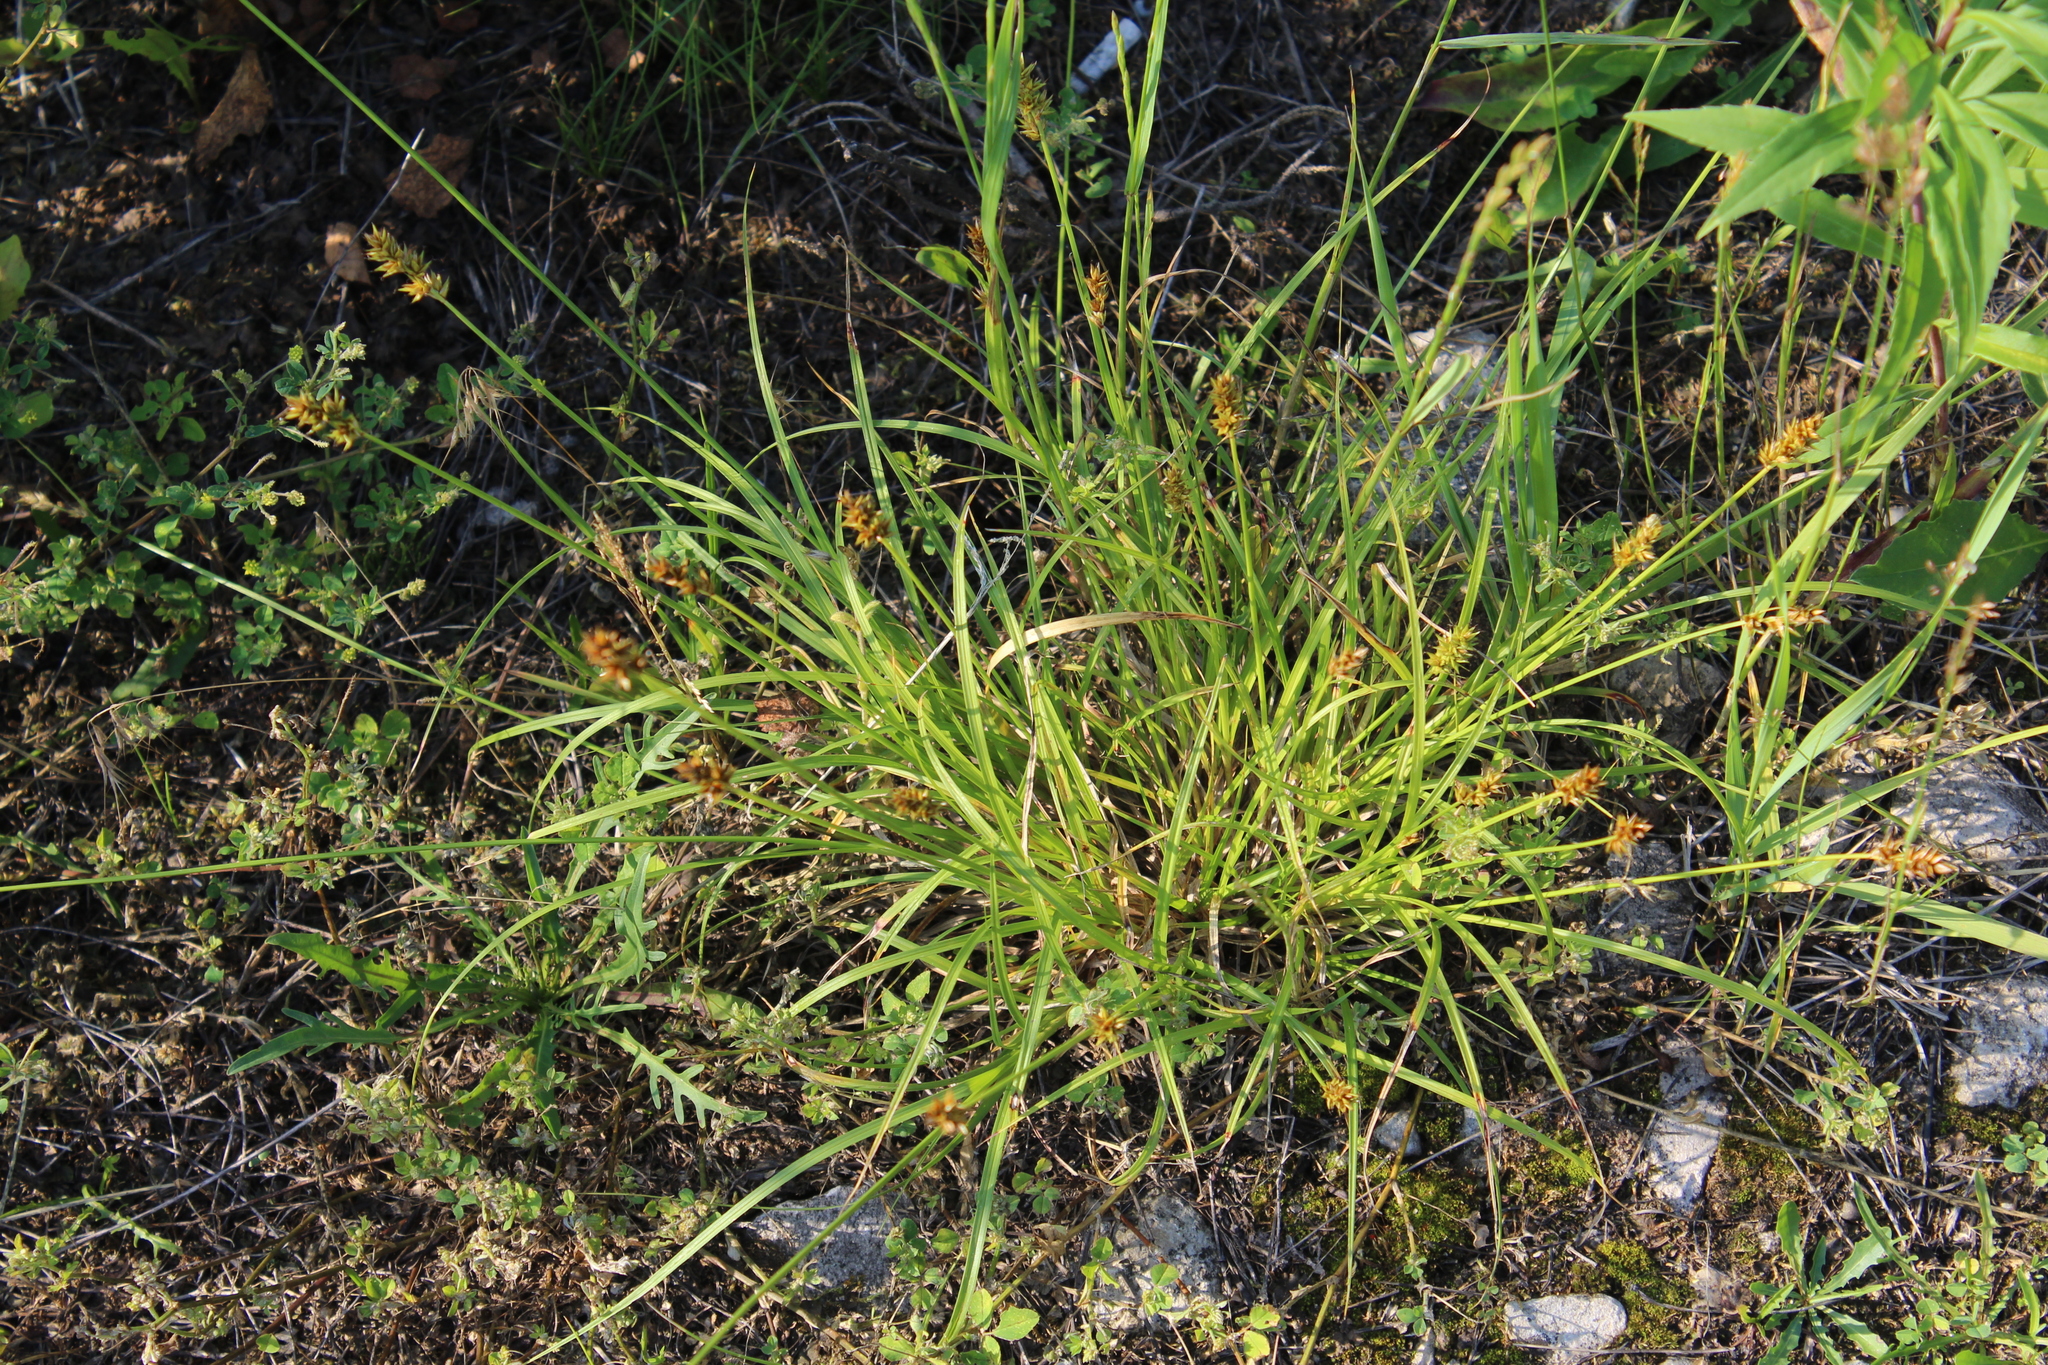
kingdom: Plantae
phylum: Tracheophyta
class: Liliopsida
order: Poales
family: Cyperaceae
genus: Carex
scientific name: Carex spicata
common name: Spiked sedge
